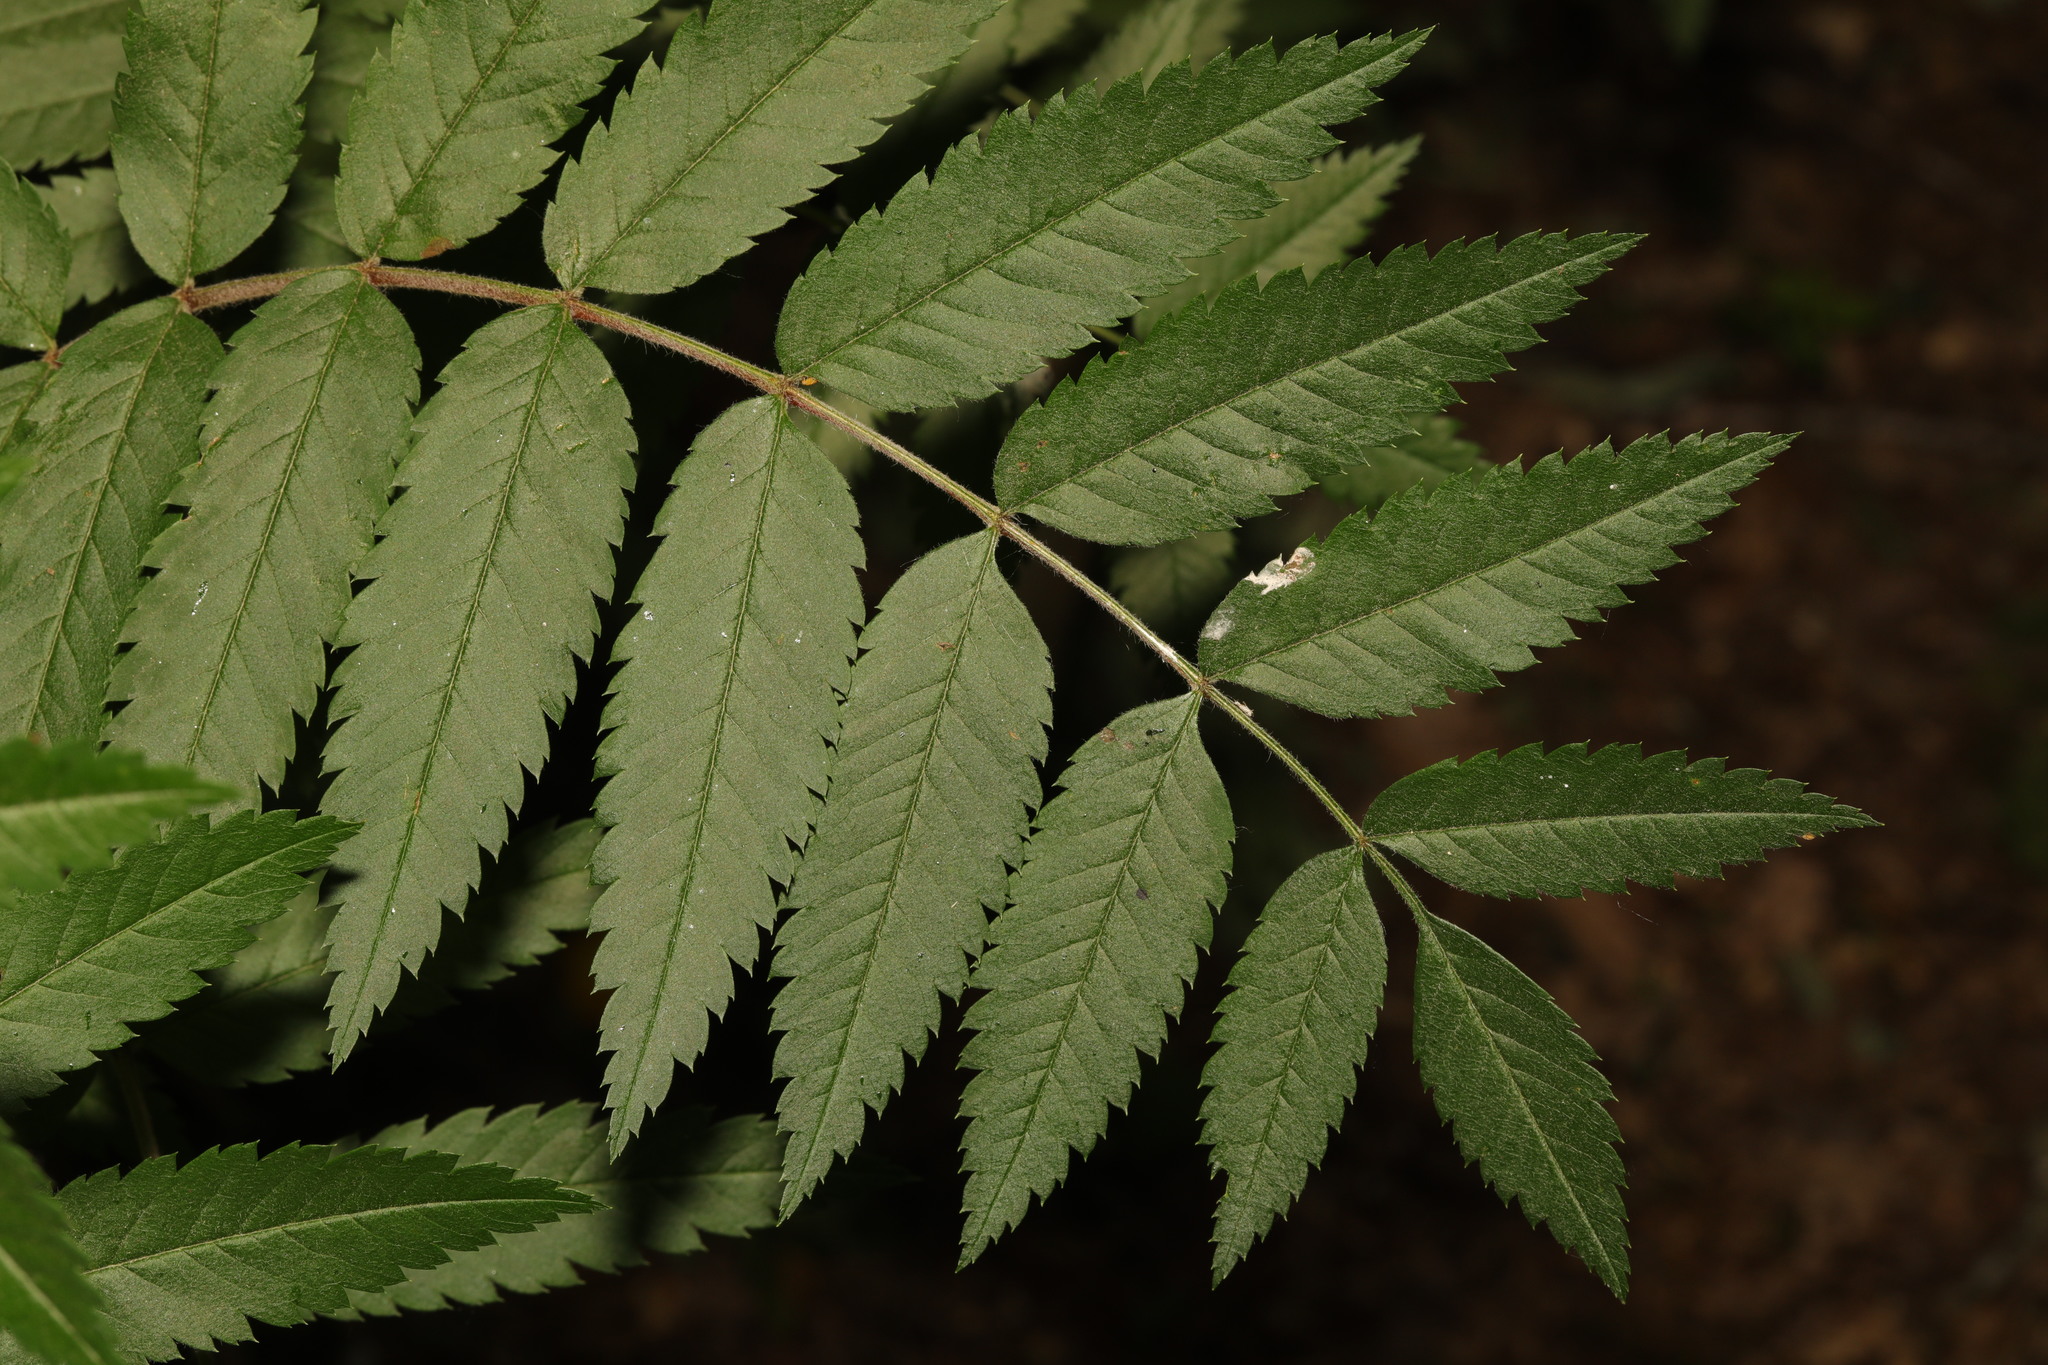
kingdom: Plantae
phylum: Tracheophyta
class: Magnoliopsida
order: Rosales
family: Rosaceae
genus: Sorbus
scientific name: Sorbus aucuparia
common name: Rowan
